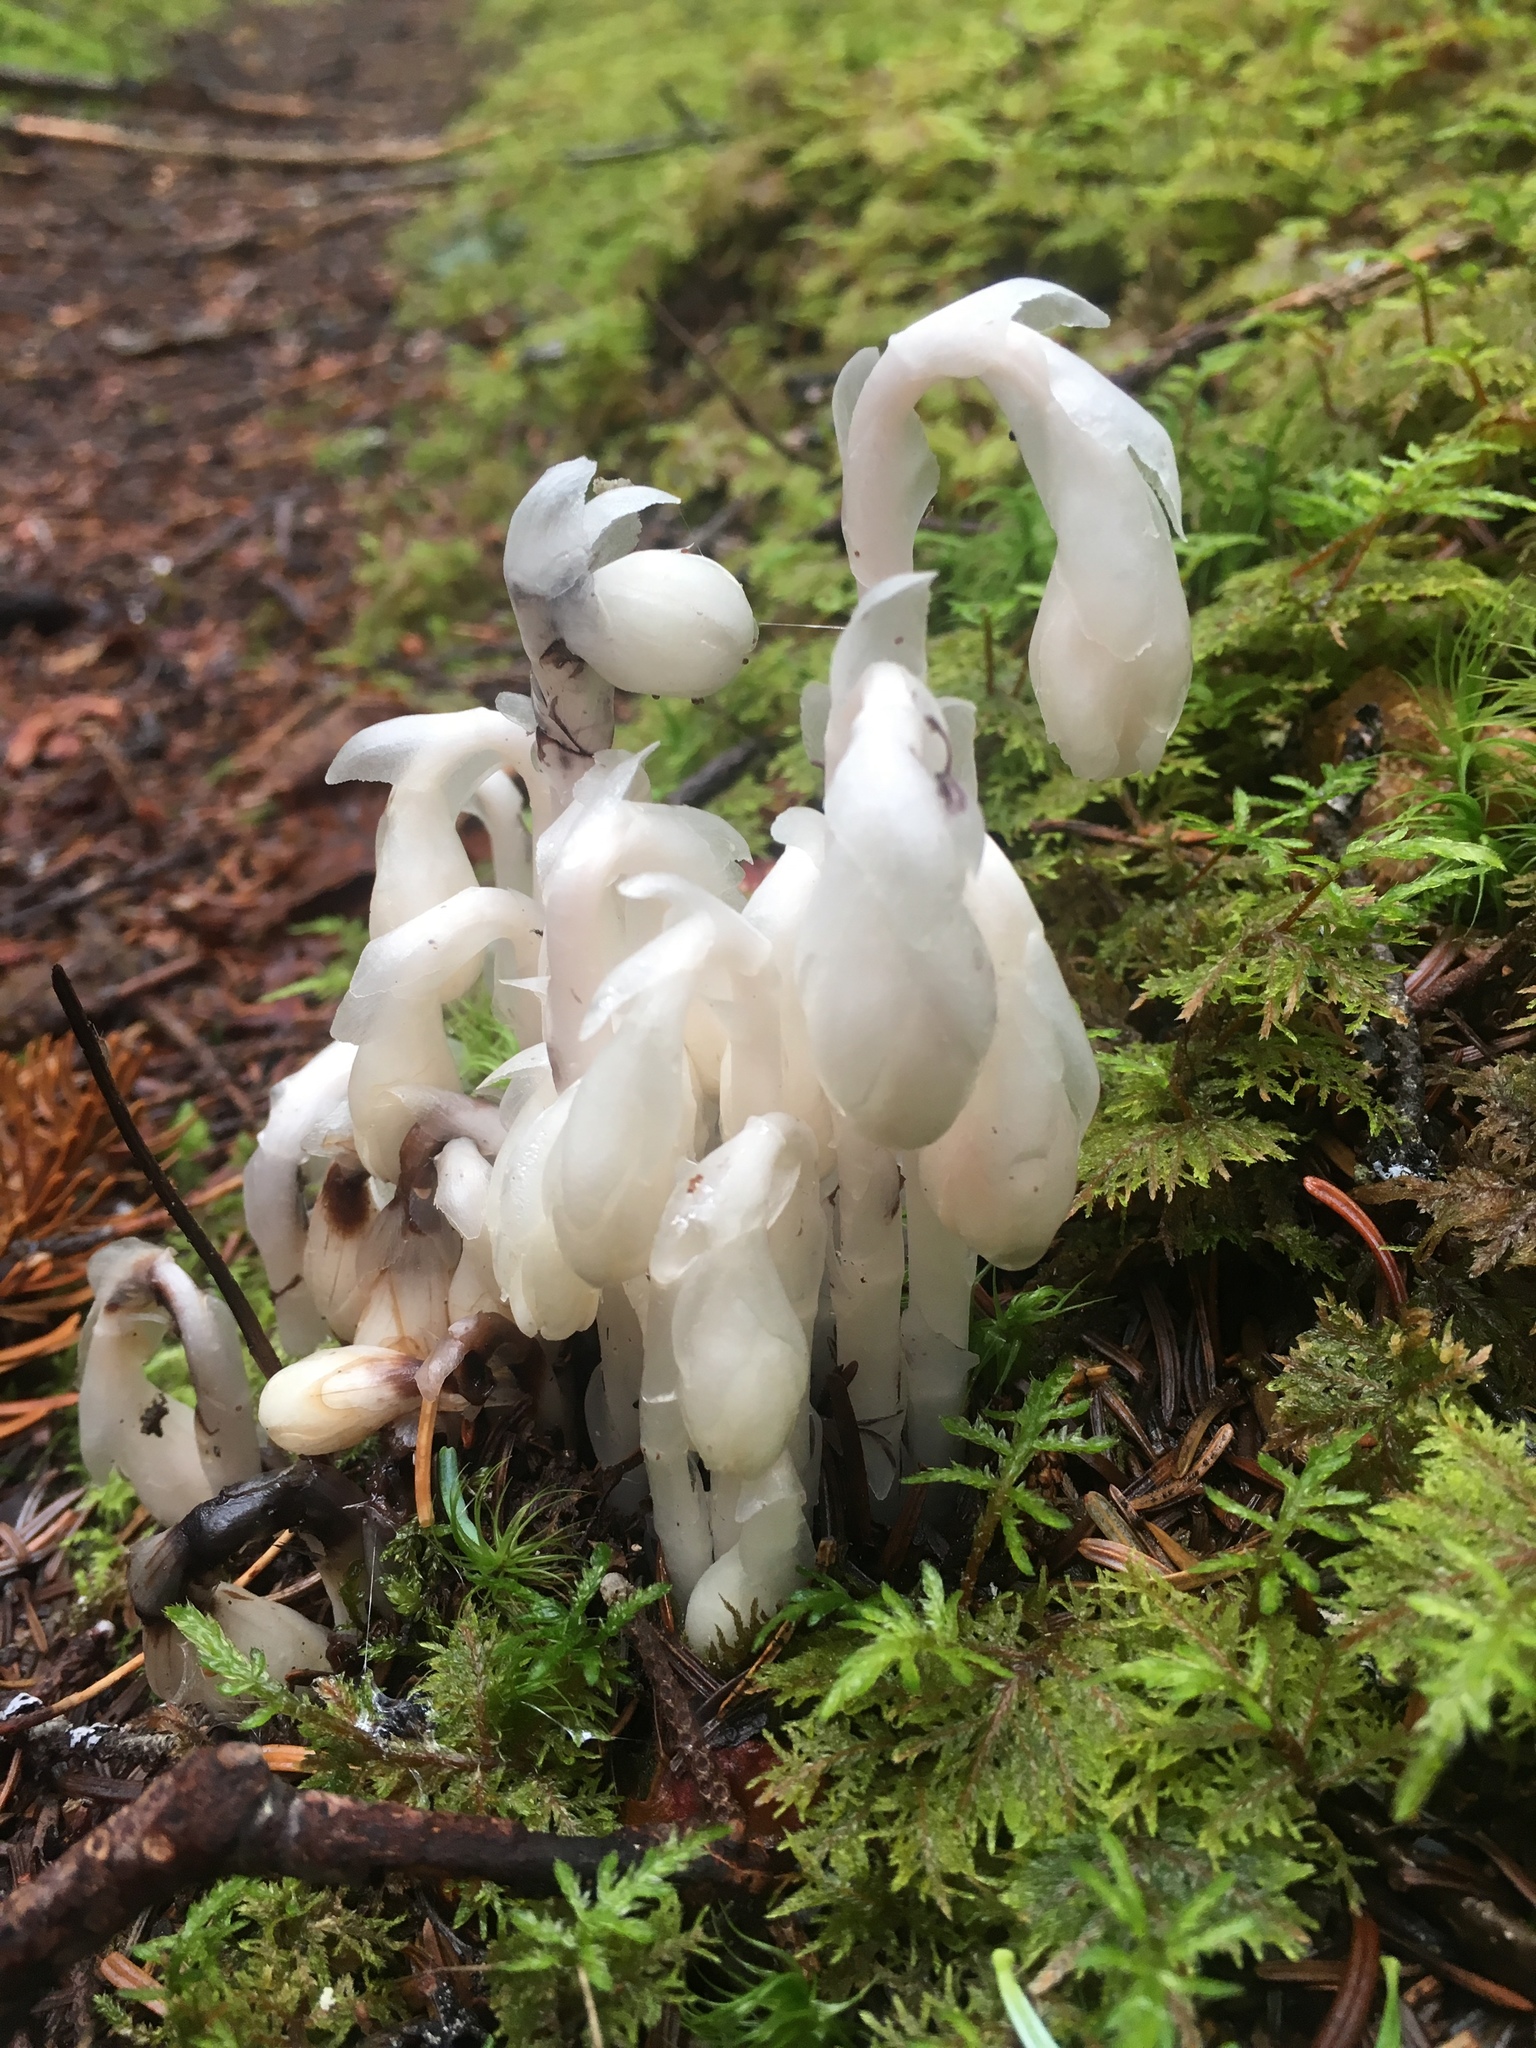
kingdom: Plantae
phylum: Tracheophyta
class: Magnoliopsida
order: Ericales
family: Ericaceae
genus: Monotropa
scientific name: Monotropa uniflora
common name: Convulsion root
